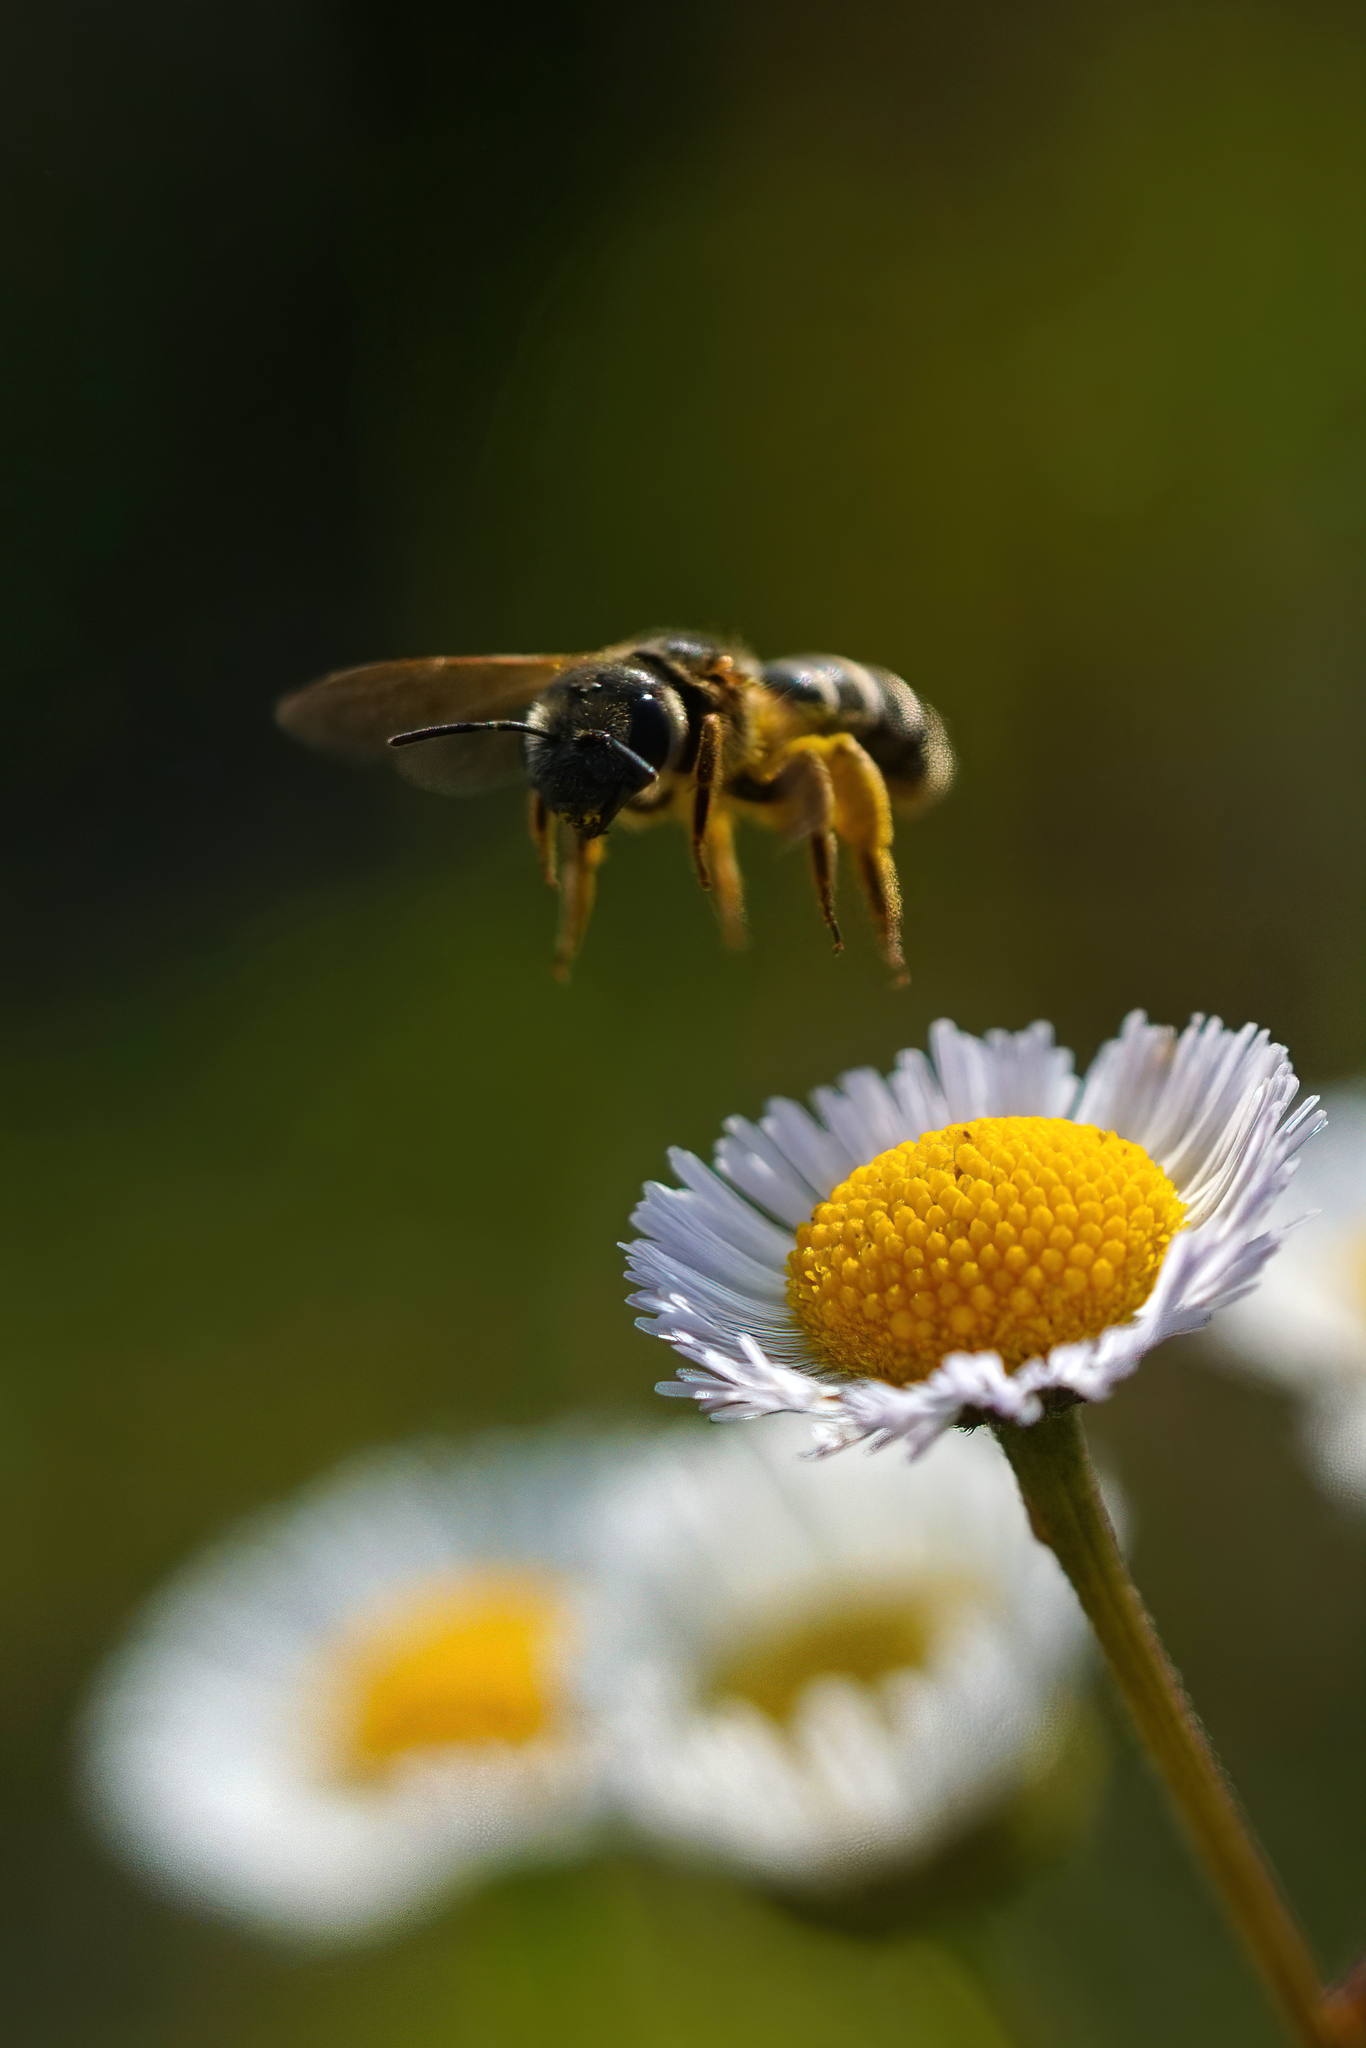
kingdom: Animalia
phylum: Arthropoda
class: Insecta
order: Hymenoptera
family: Halictidae
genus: Halictus
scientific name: Halictus poeyi
